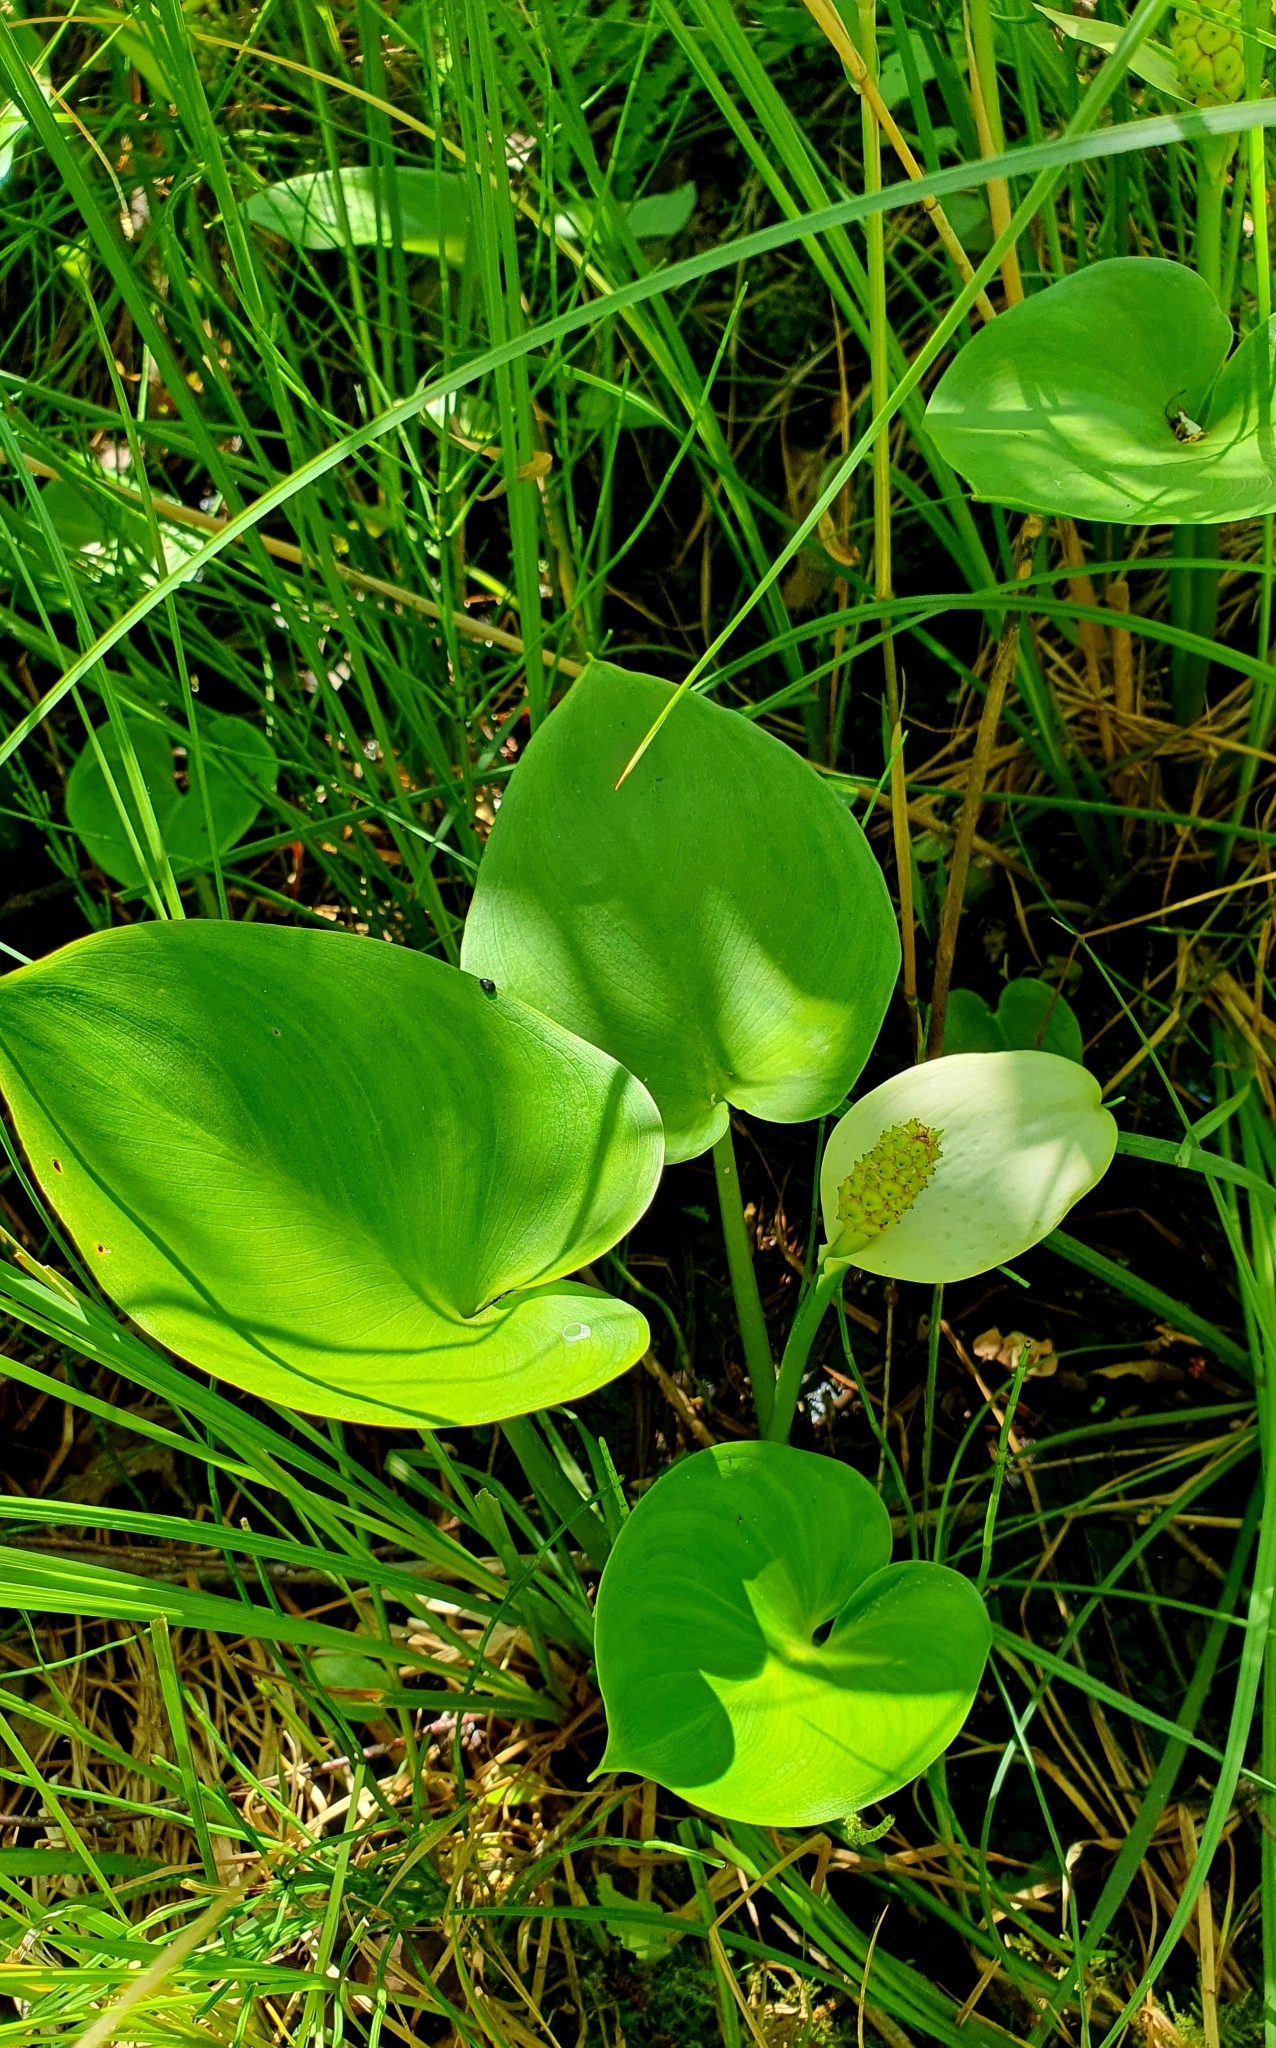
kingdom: Plantae
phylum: Tracheophyta
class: Liliopsida
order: Alismatales
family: Araceae
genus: Calla
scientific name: Calla palustris
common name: Bog arum
